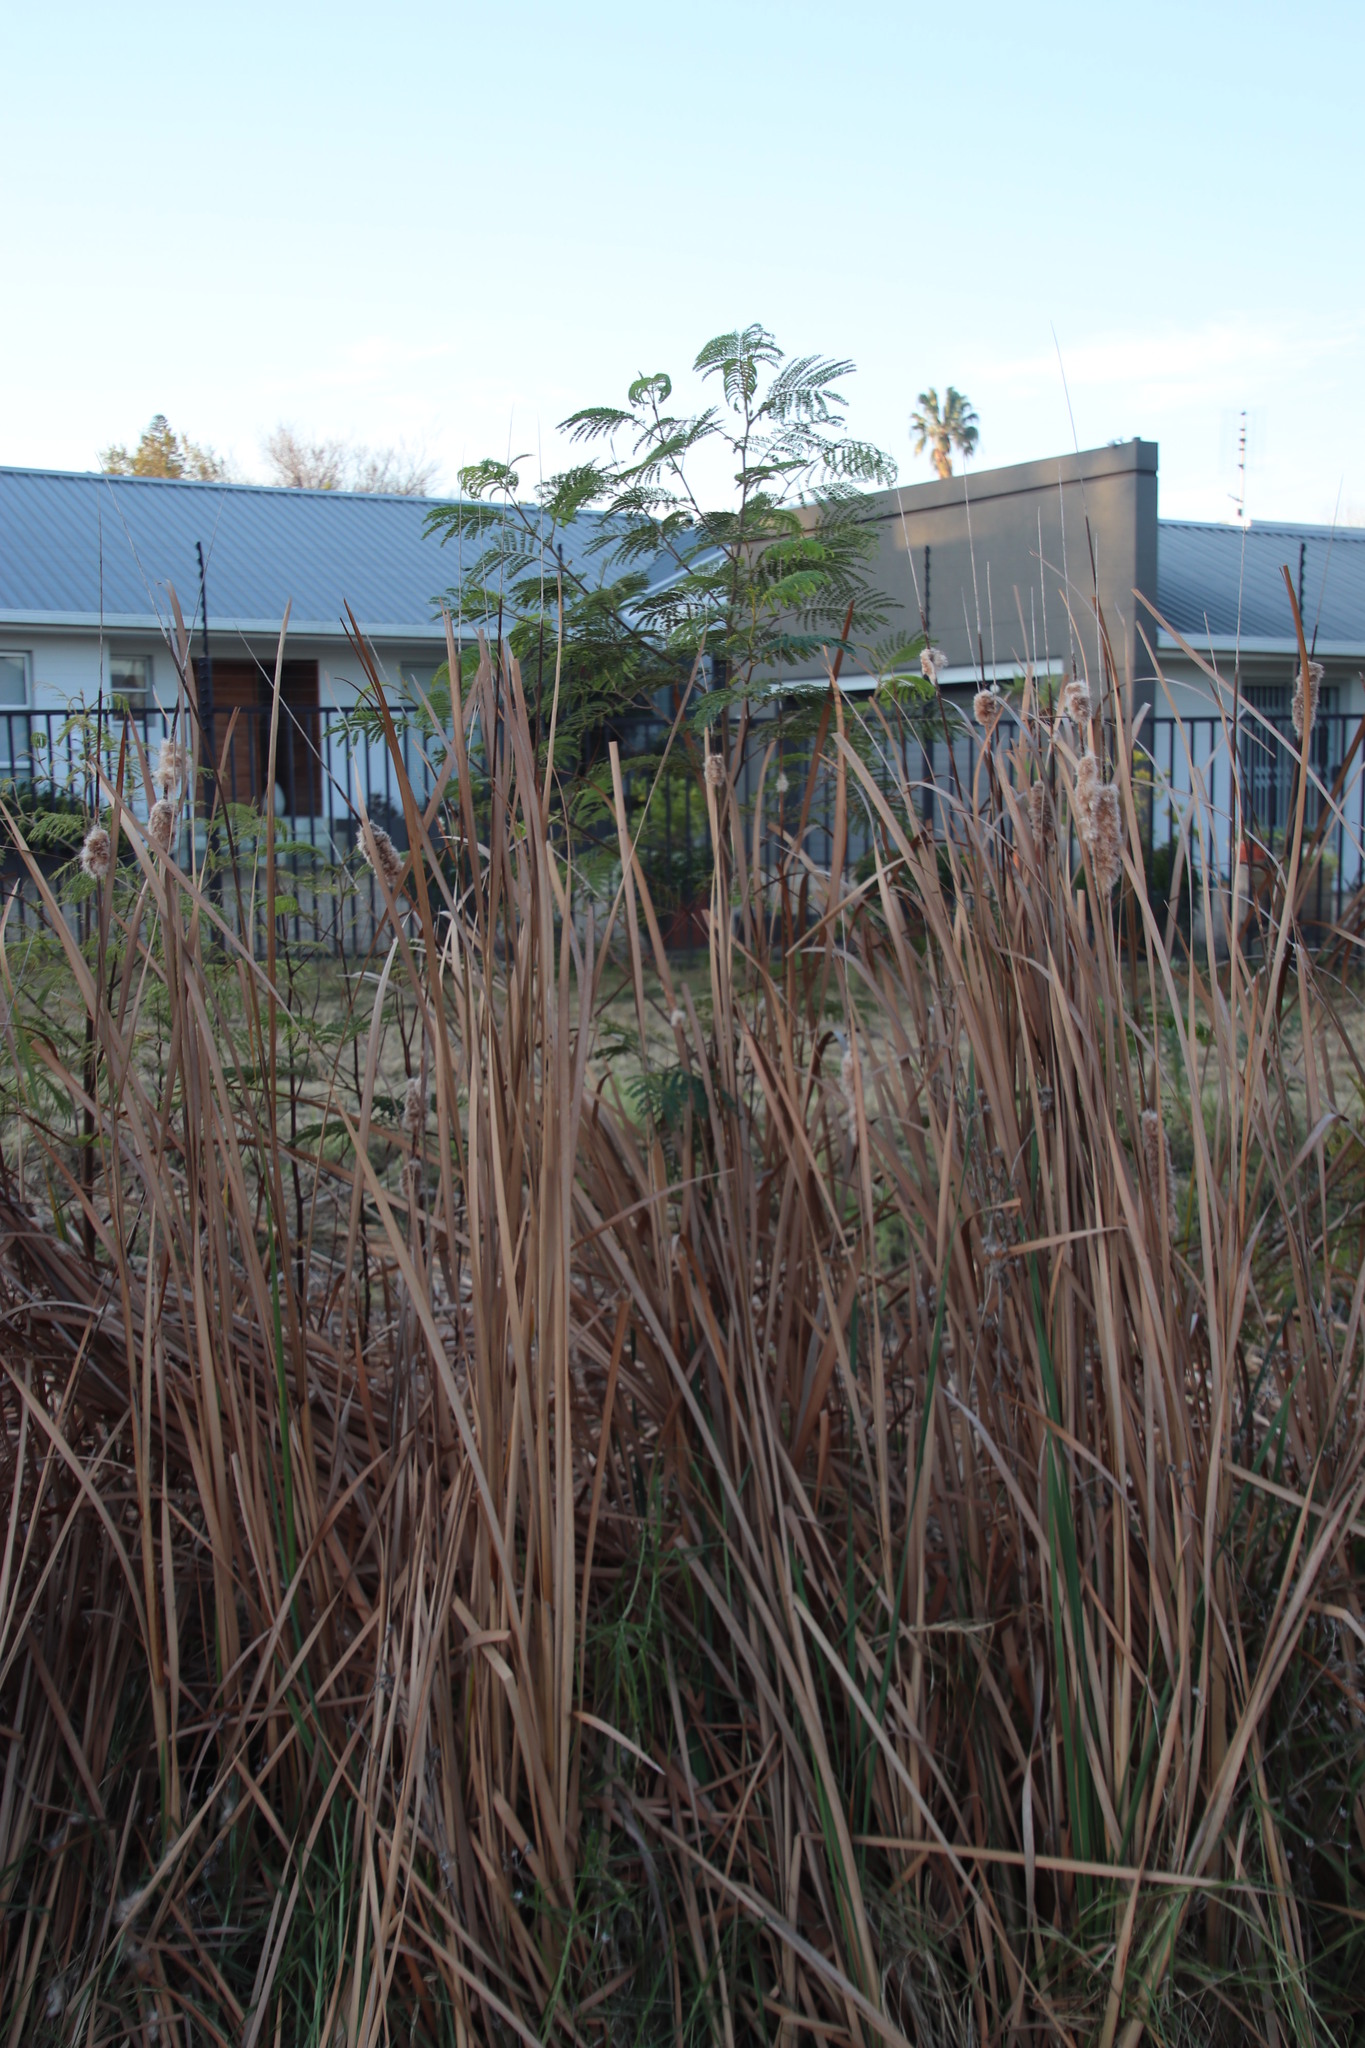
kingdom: Plantae
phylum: Tracheophyta
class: Magnoliopsida
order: Fabales
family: Fabaceae
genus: Paraserianthes
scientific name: Paraserianthes lophantha
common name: Plume albizia
